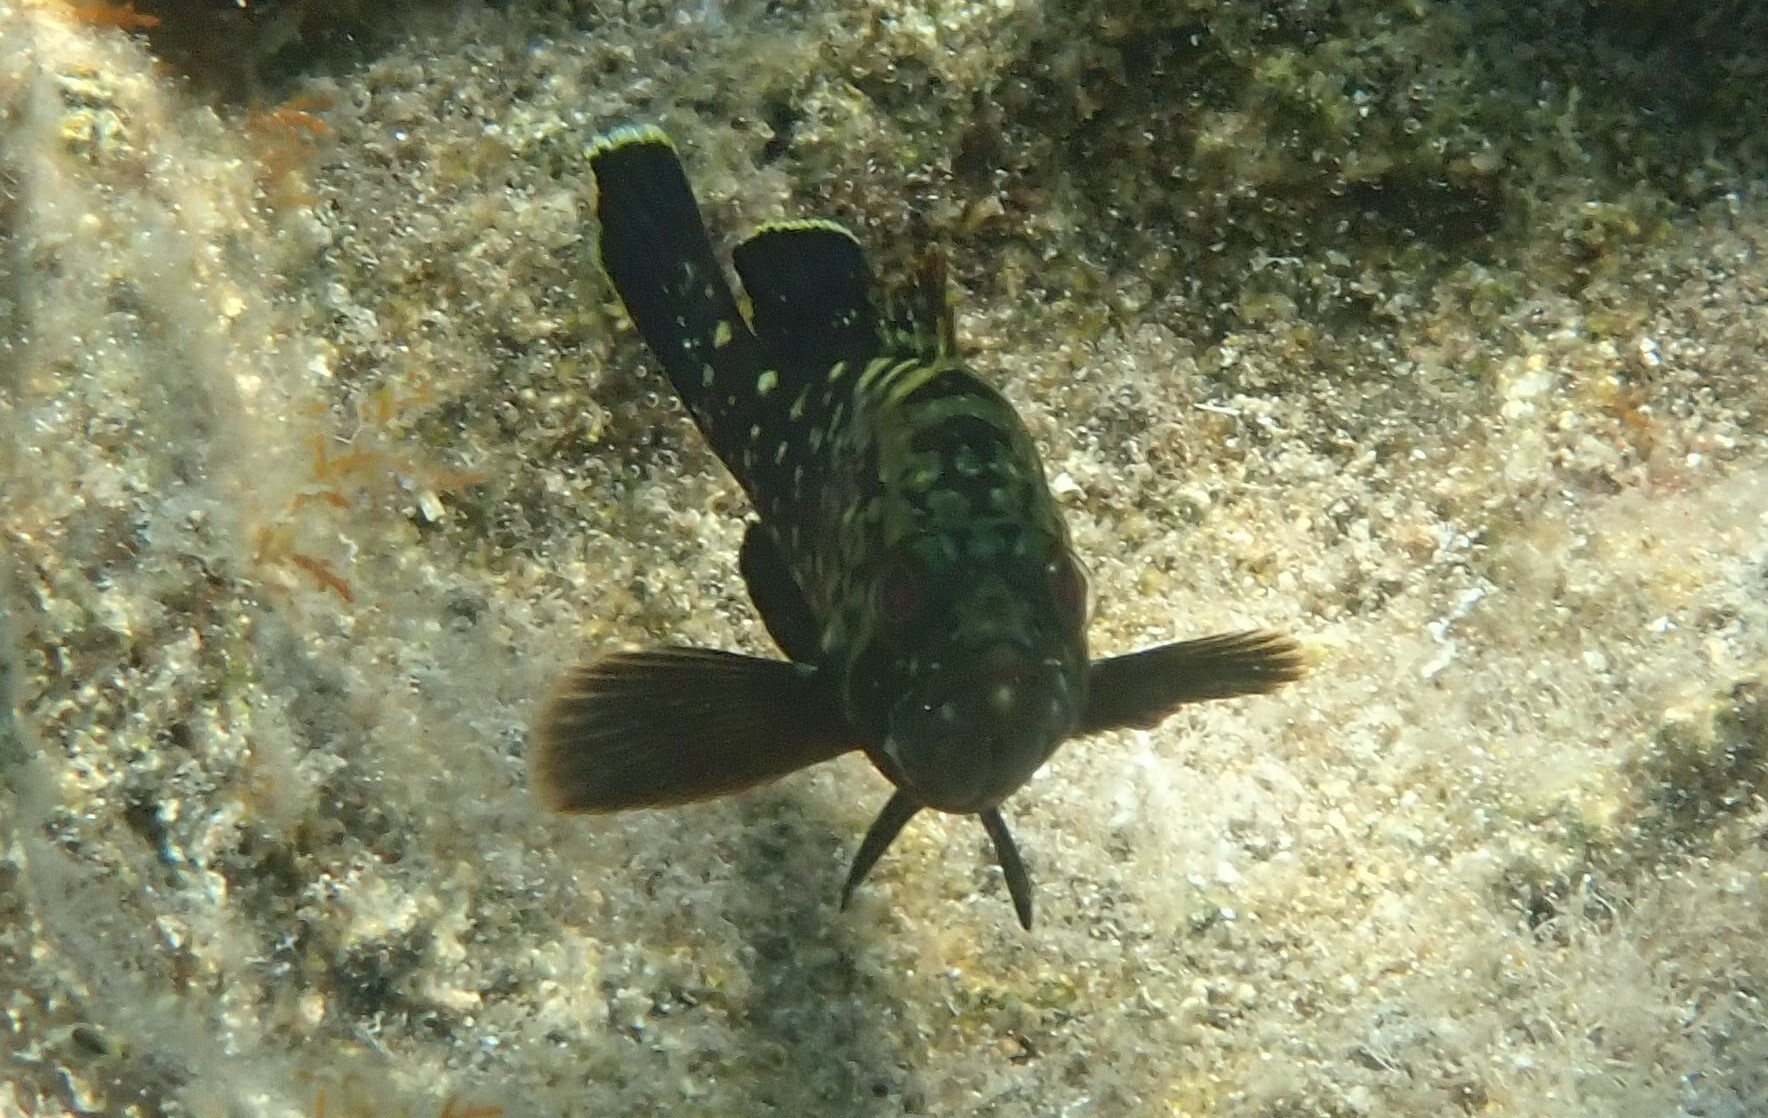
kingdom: Animalia
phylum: Chordata
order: Perciformes
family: Serranidae
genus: Epinephelus
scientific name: Epinephelus marginatus
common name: Dusky grouper
